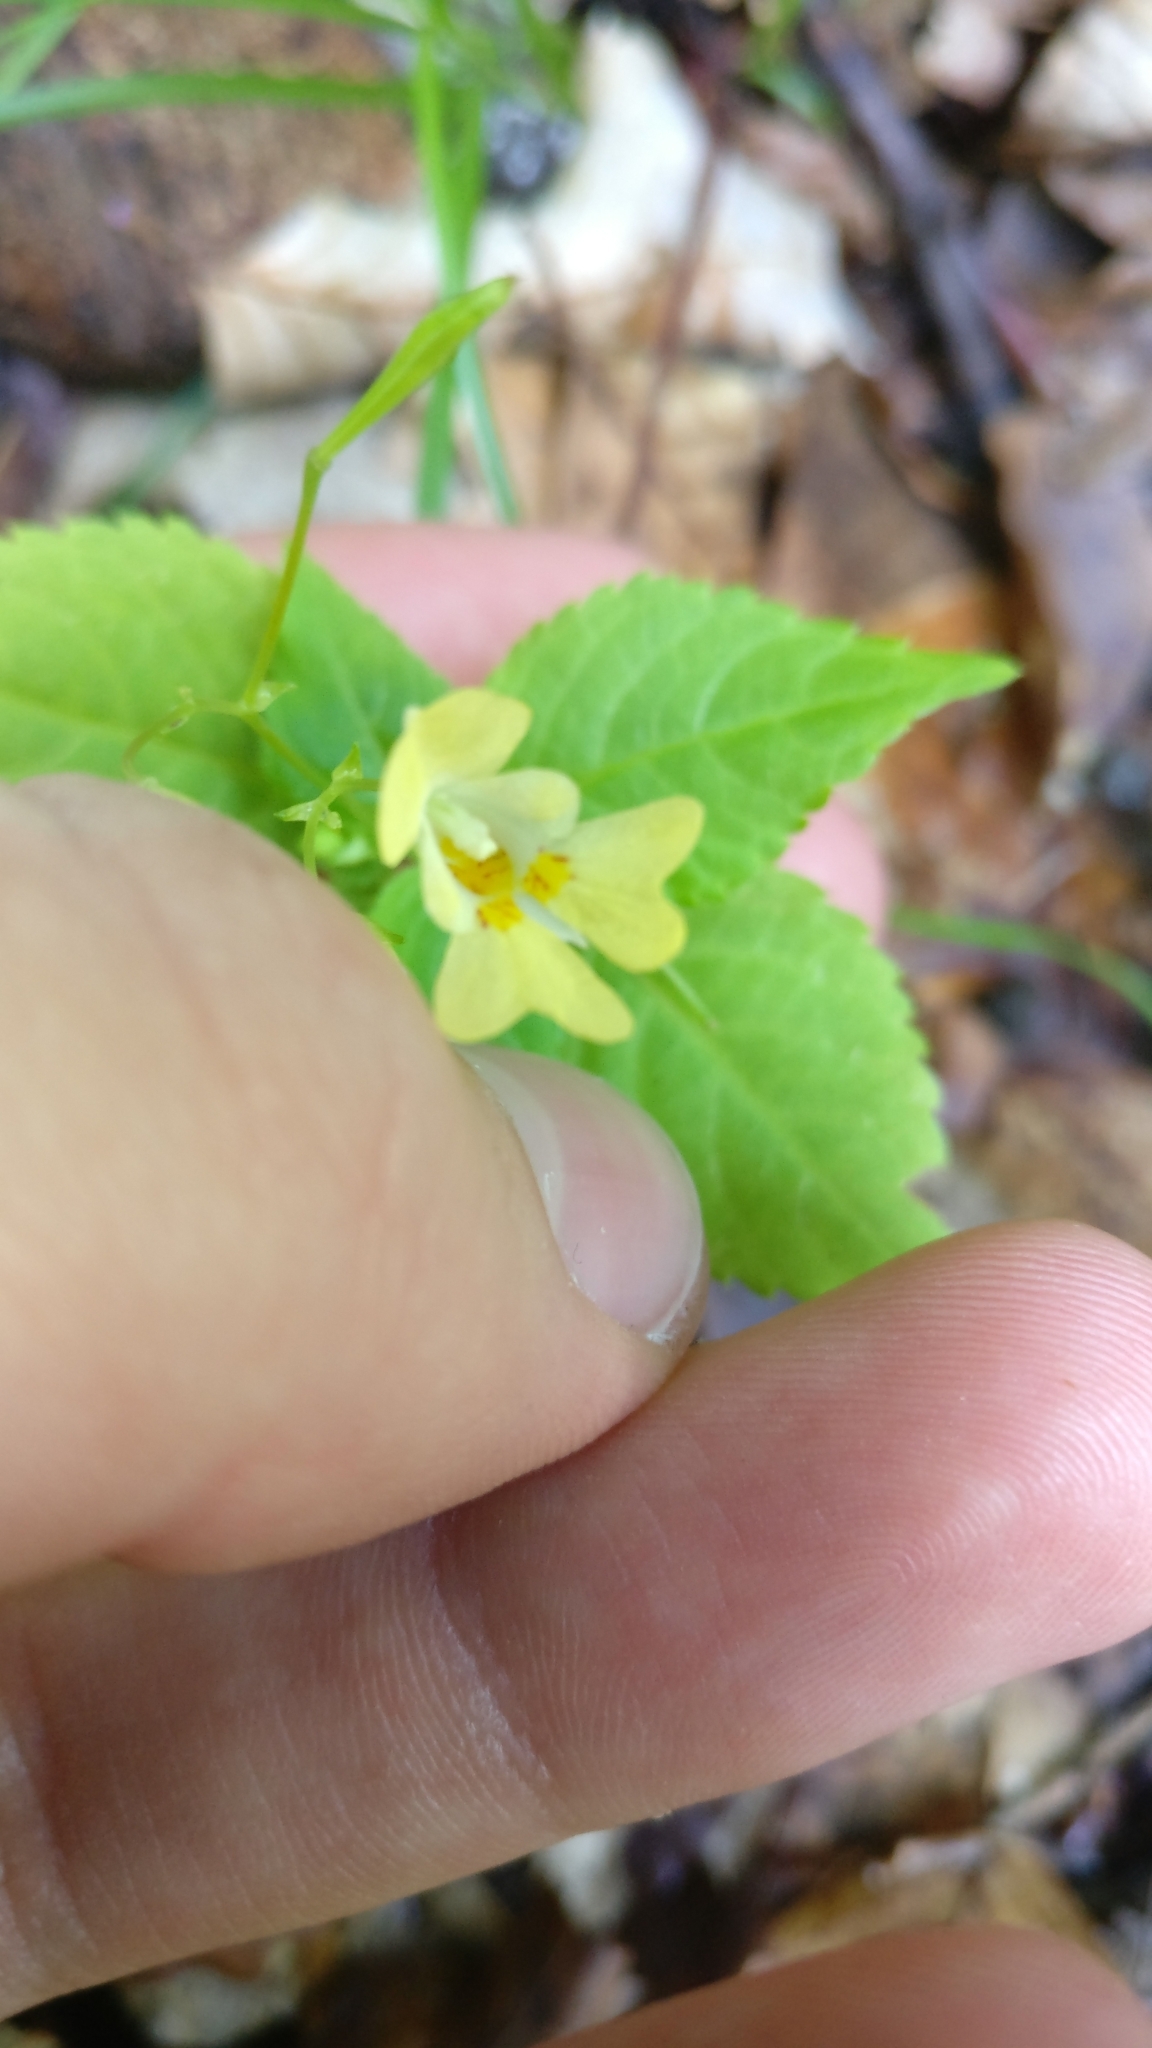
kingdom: Plantae
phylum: Tracheophyta
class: Magnoliopsida
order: Ericales
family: Balsaminaceae
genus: Impatiens
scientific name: Impatiens parviflora
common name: Small balsam
